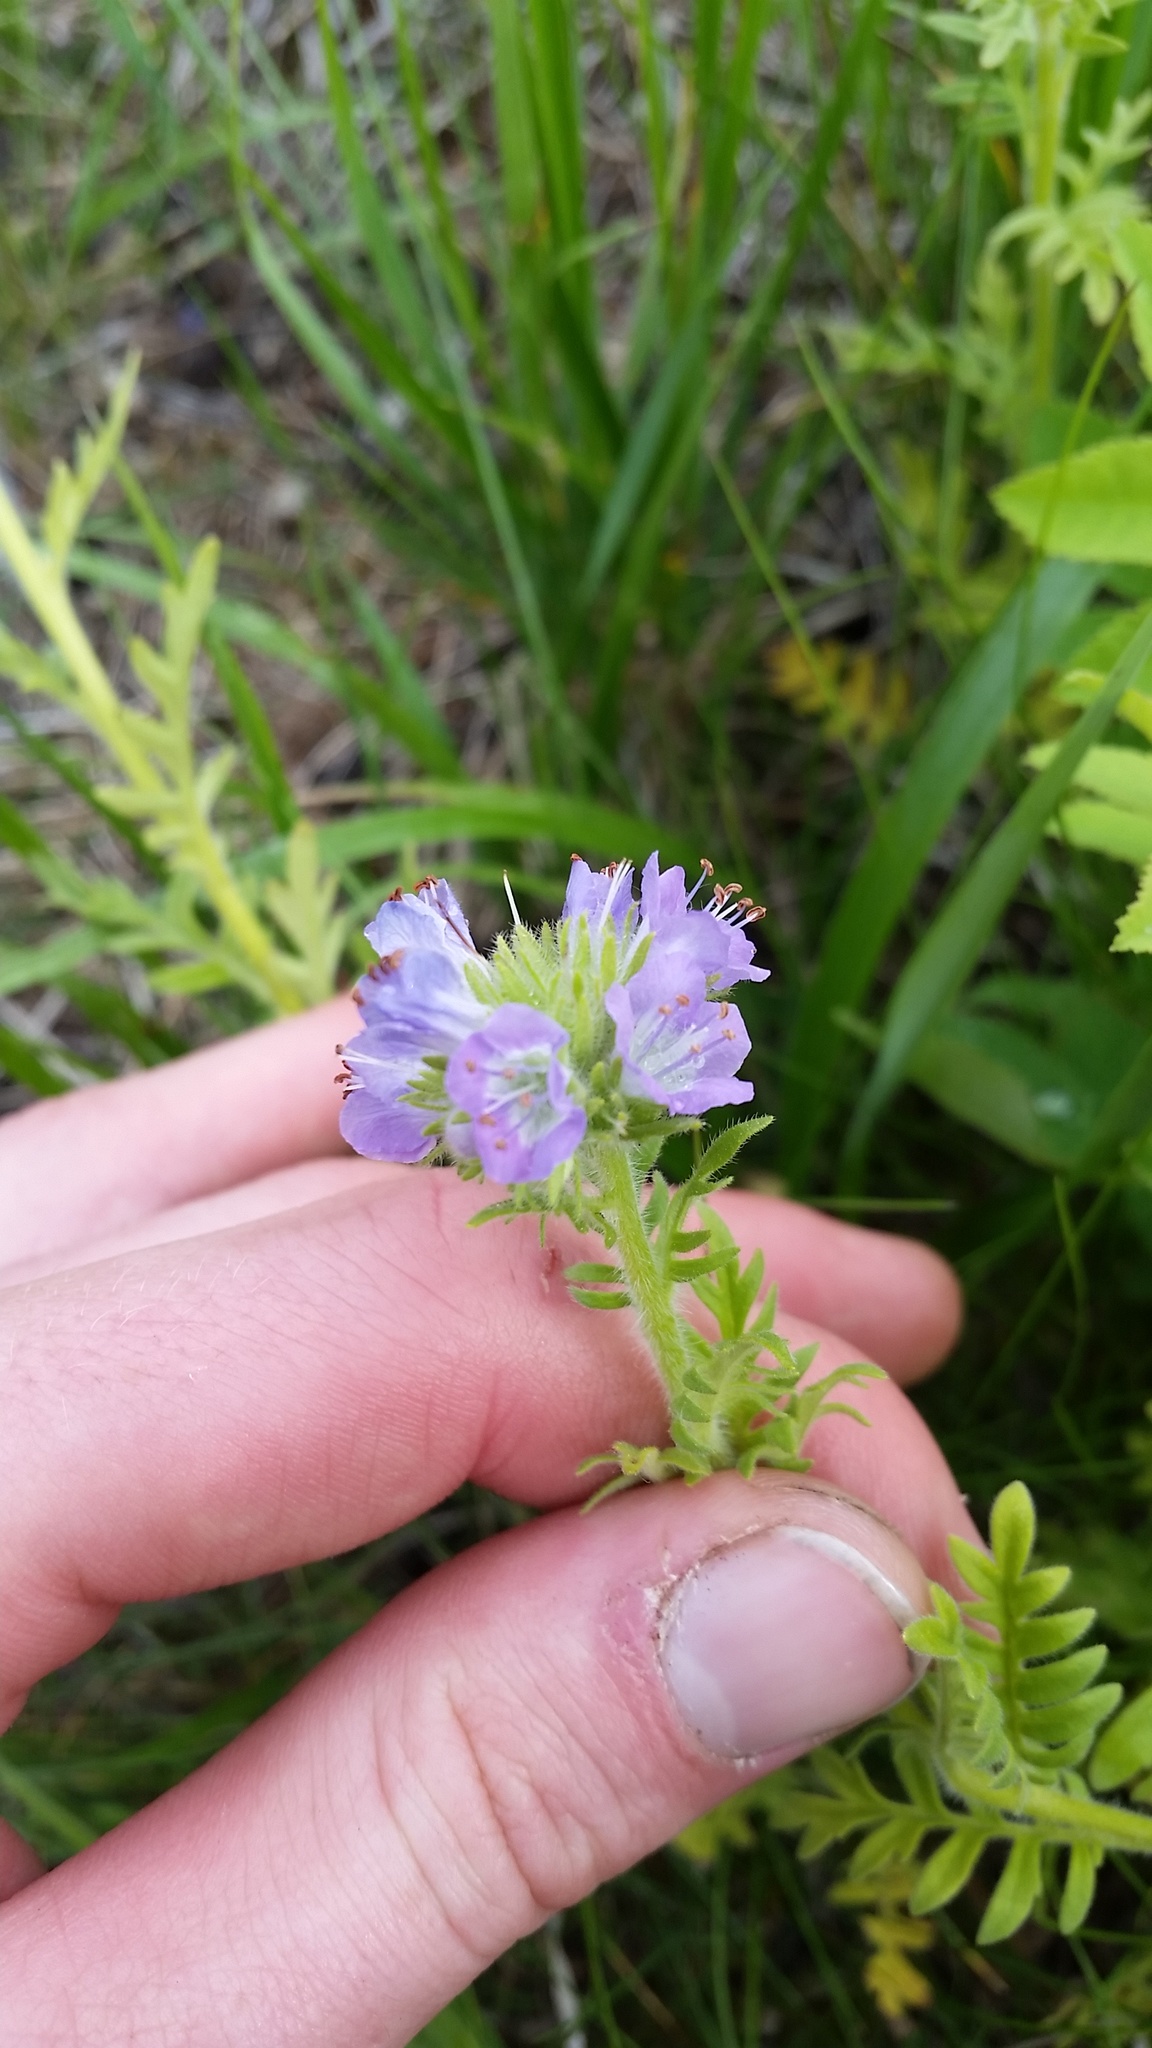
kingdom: Plantae
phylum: Tracheophyta
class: Magnoliopsida
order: Boraginales
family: Hydrophyllaceae
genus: Phacelia
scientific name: Phacelia franklinii
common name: Franklin's phacelia
